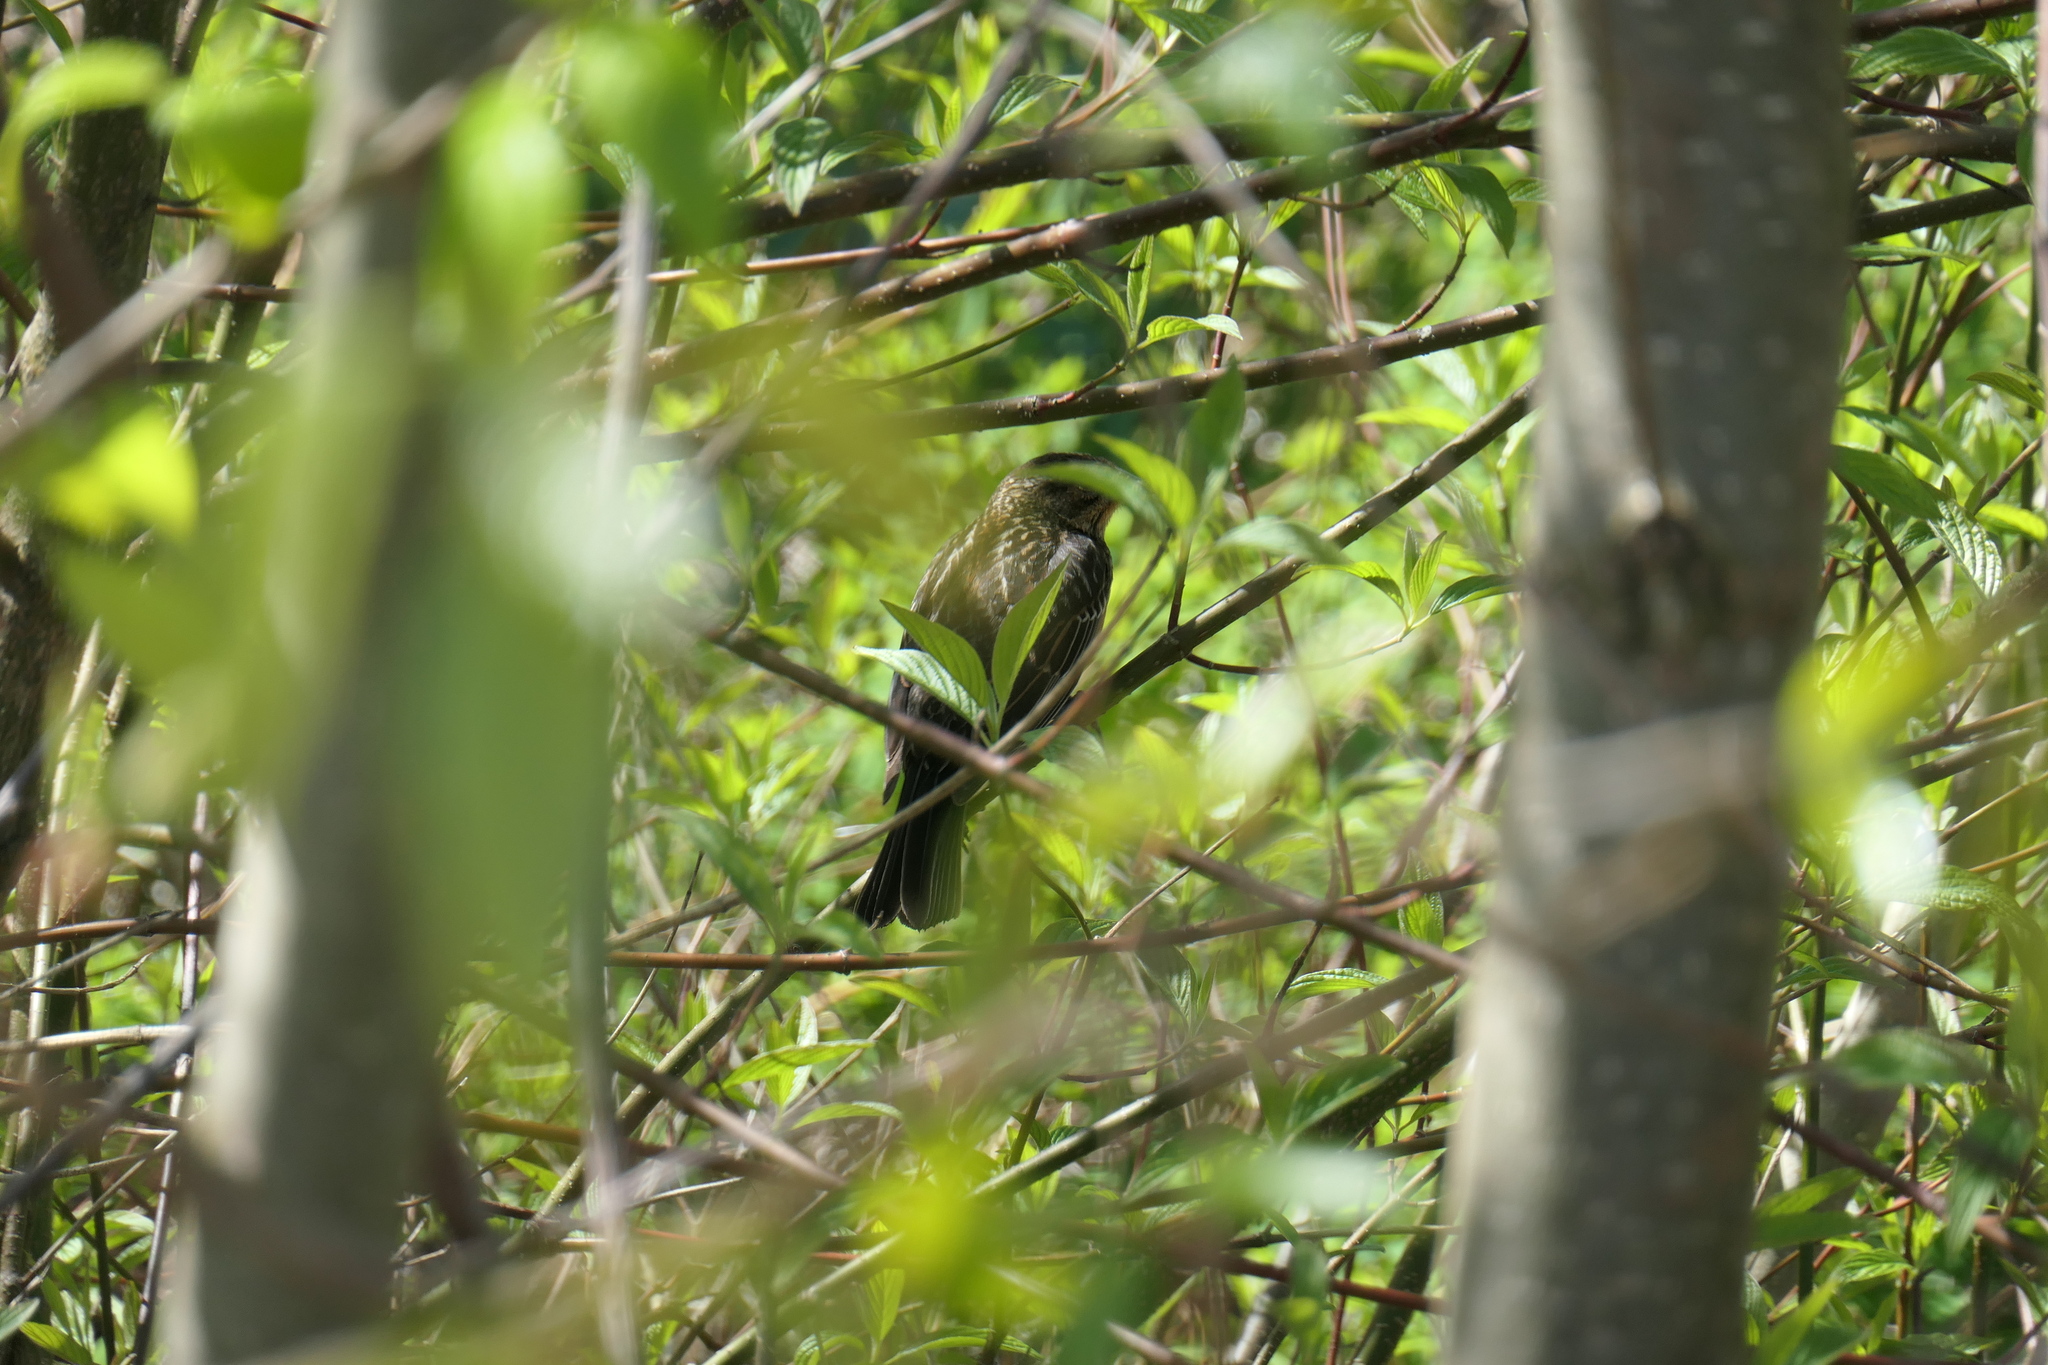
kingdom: Animalia
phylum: Chordata
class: Aves
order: Passeriformes
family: Icteridae
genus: Agelaius
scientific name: Agelaius phoeniceus
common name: Red-winged blackbird
